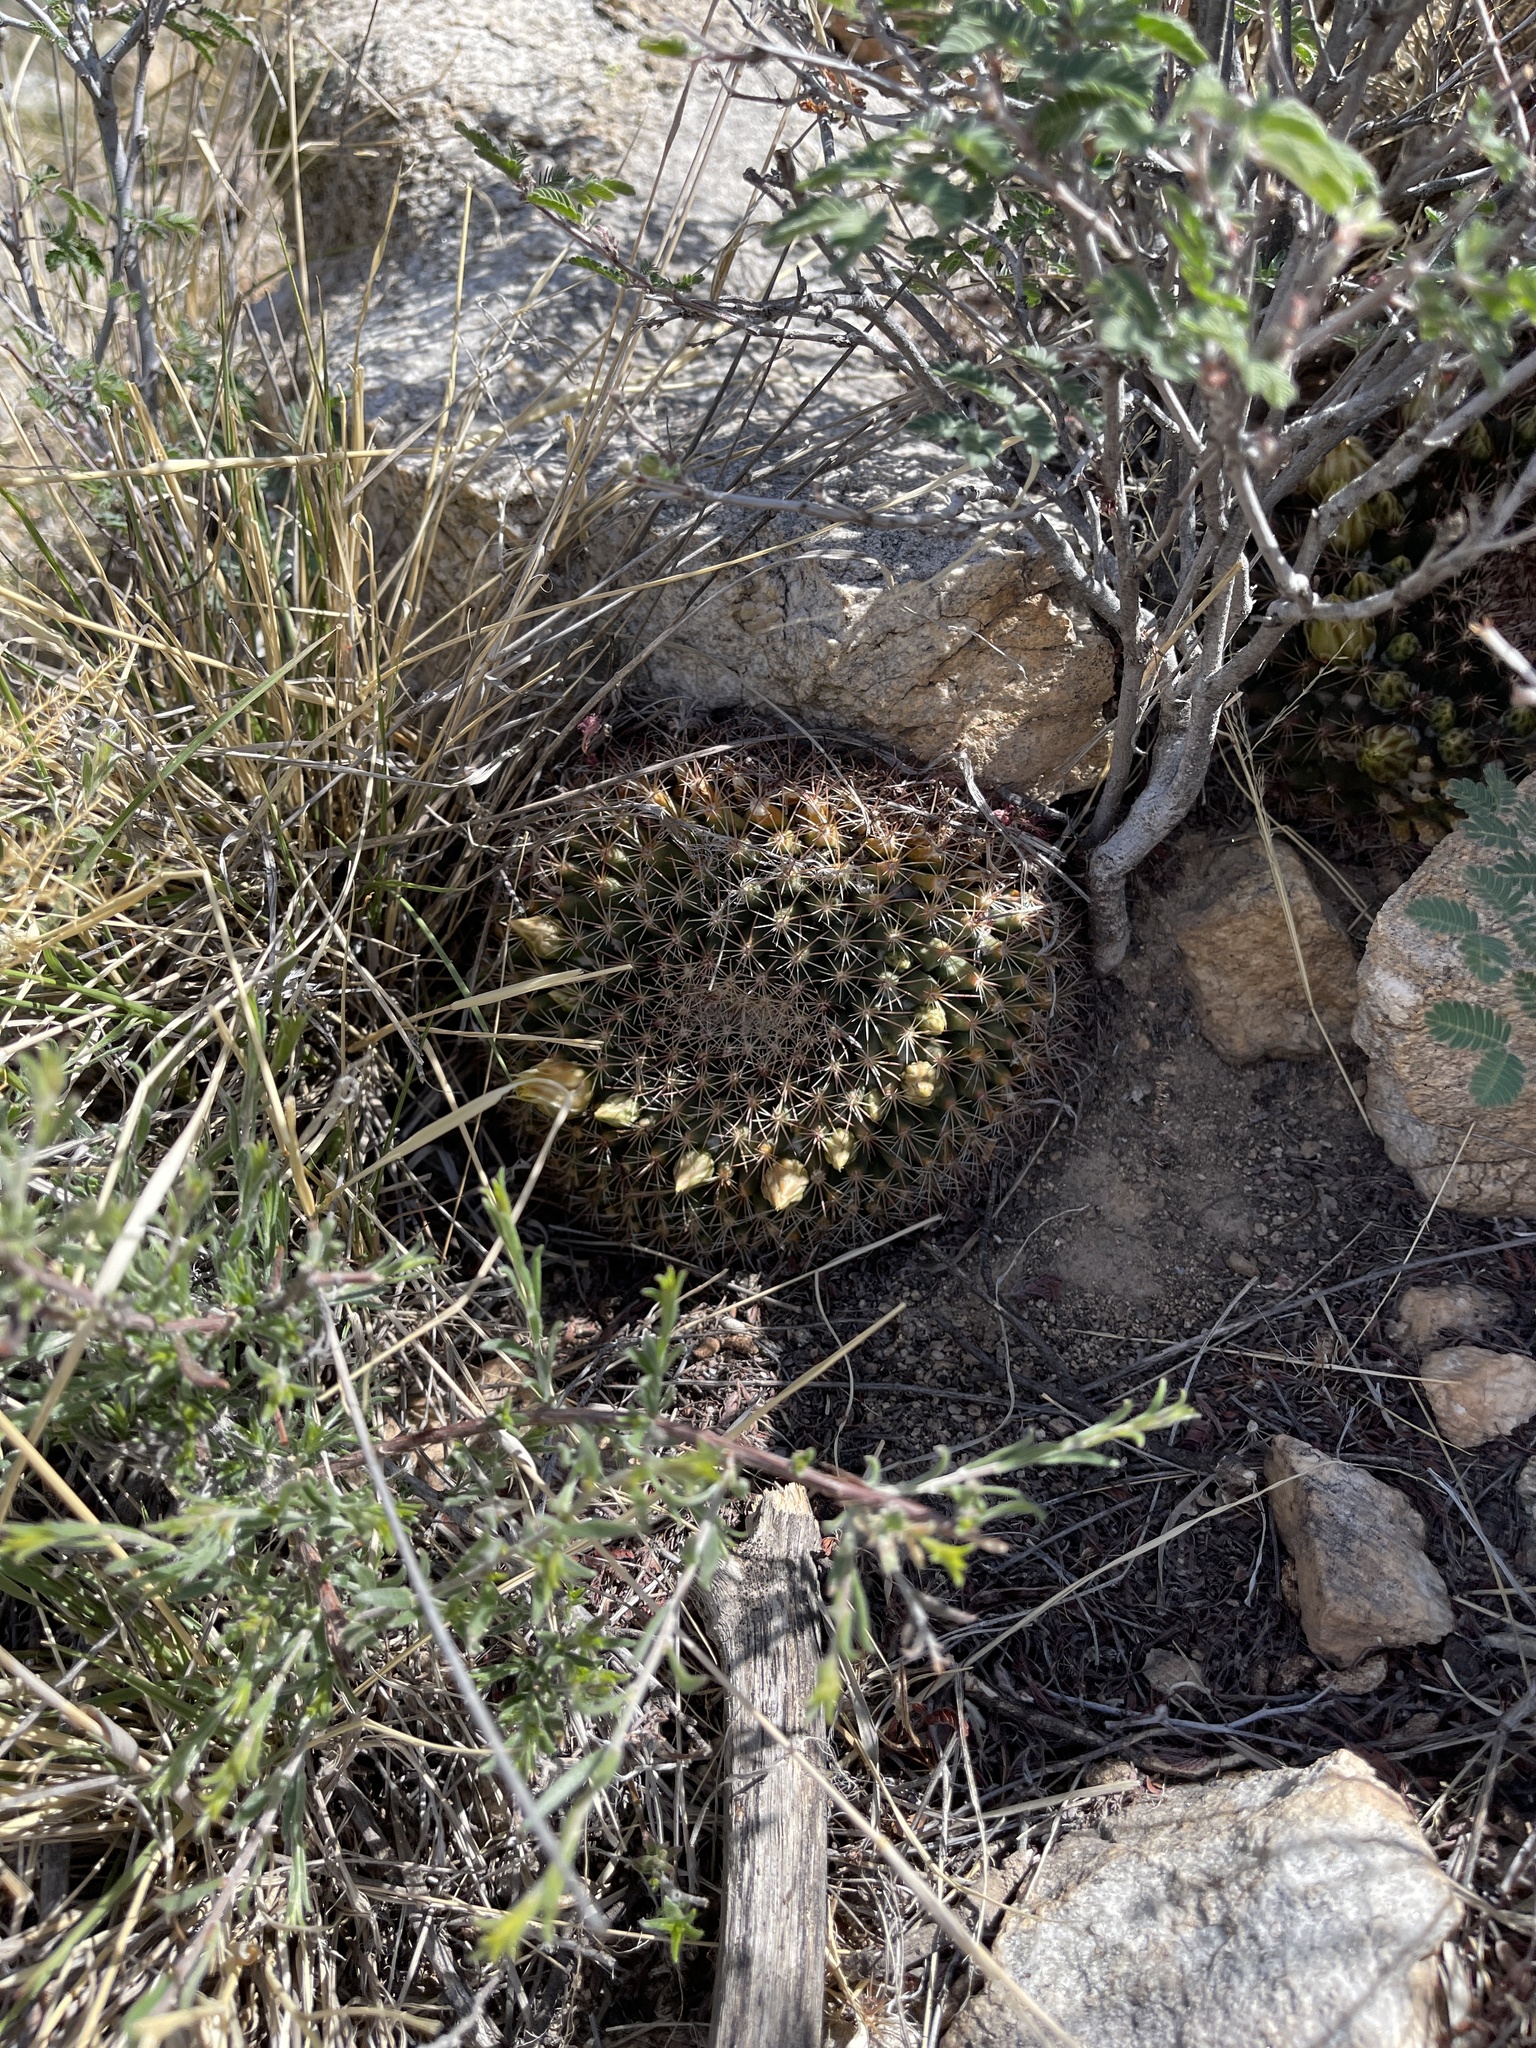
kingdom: Plantae
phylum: Tracheophyta
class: Magnoliopsida
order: Caryophyllales
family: Cactaceae
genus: Mammillaria
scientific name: Mammillaria heyderi
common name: Little nipple cactus
